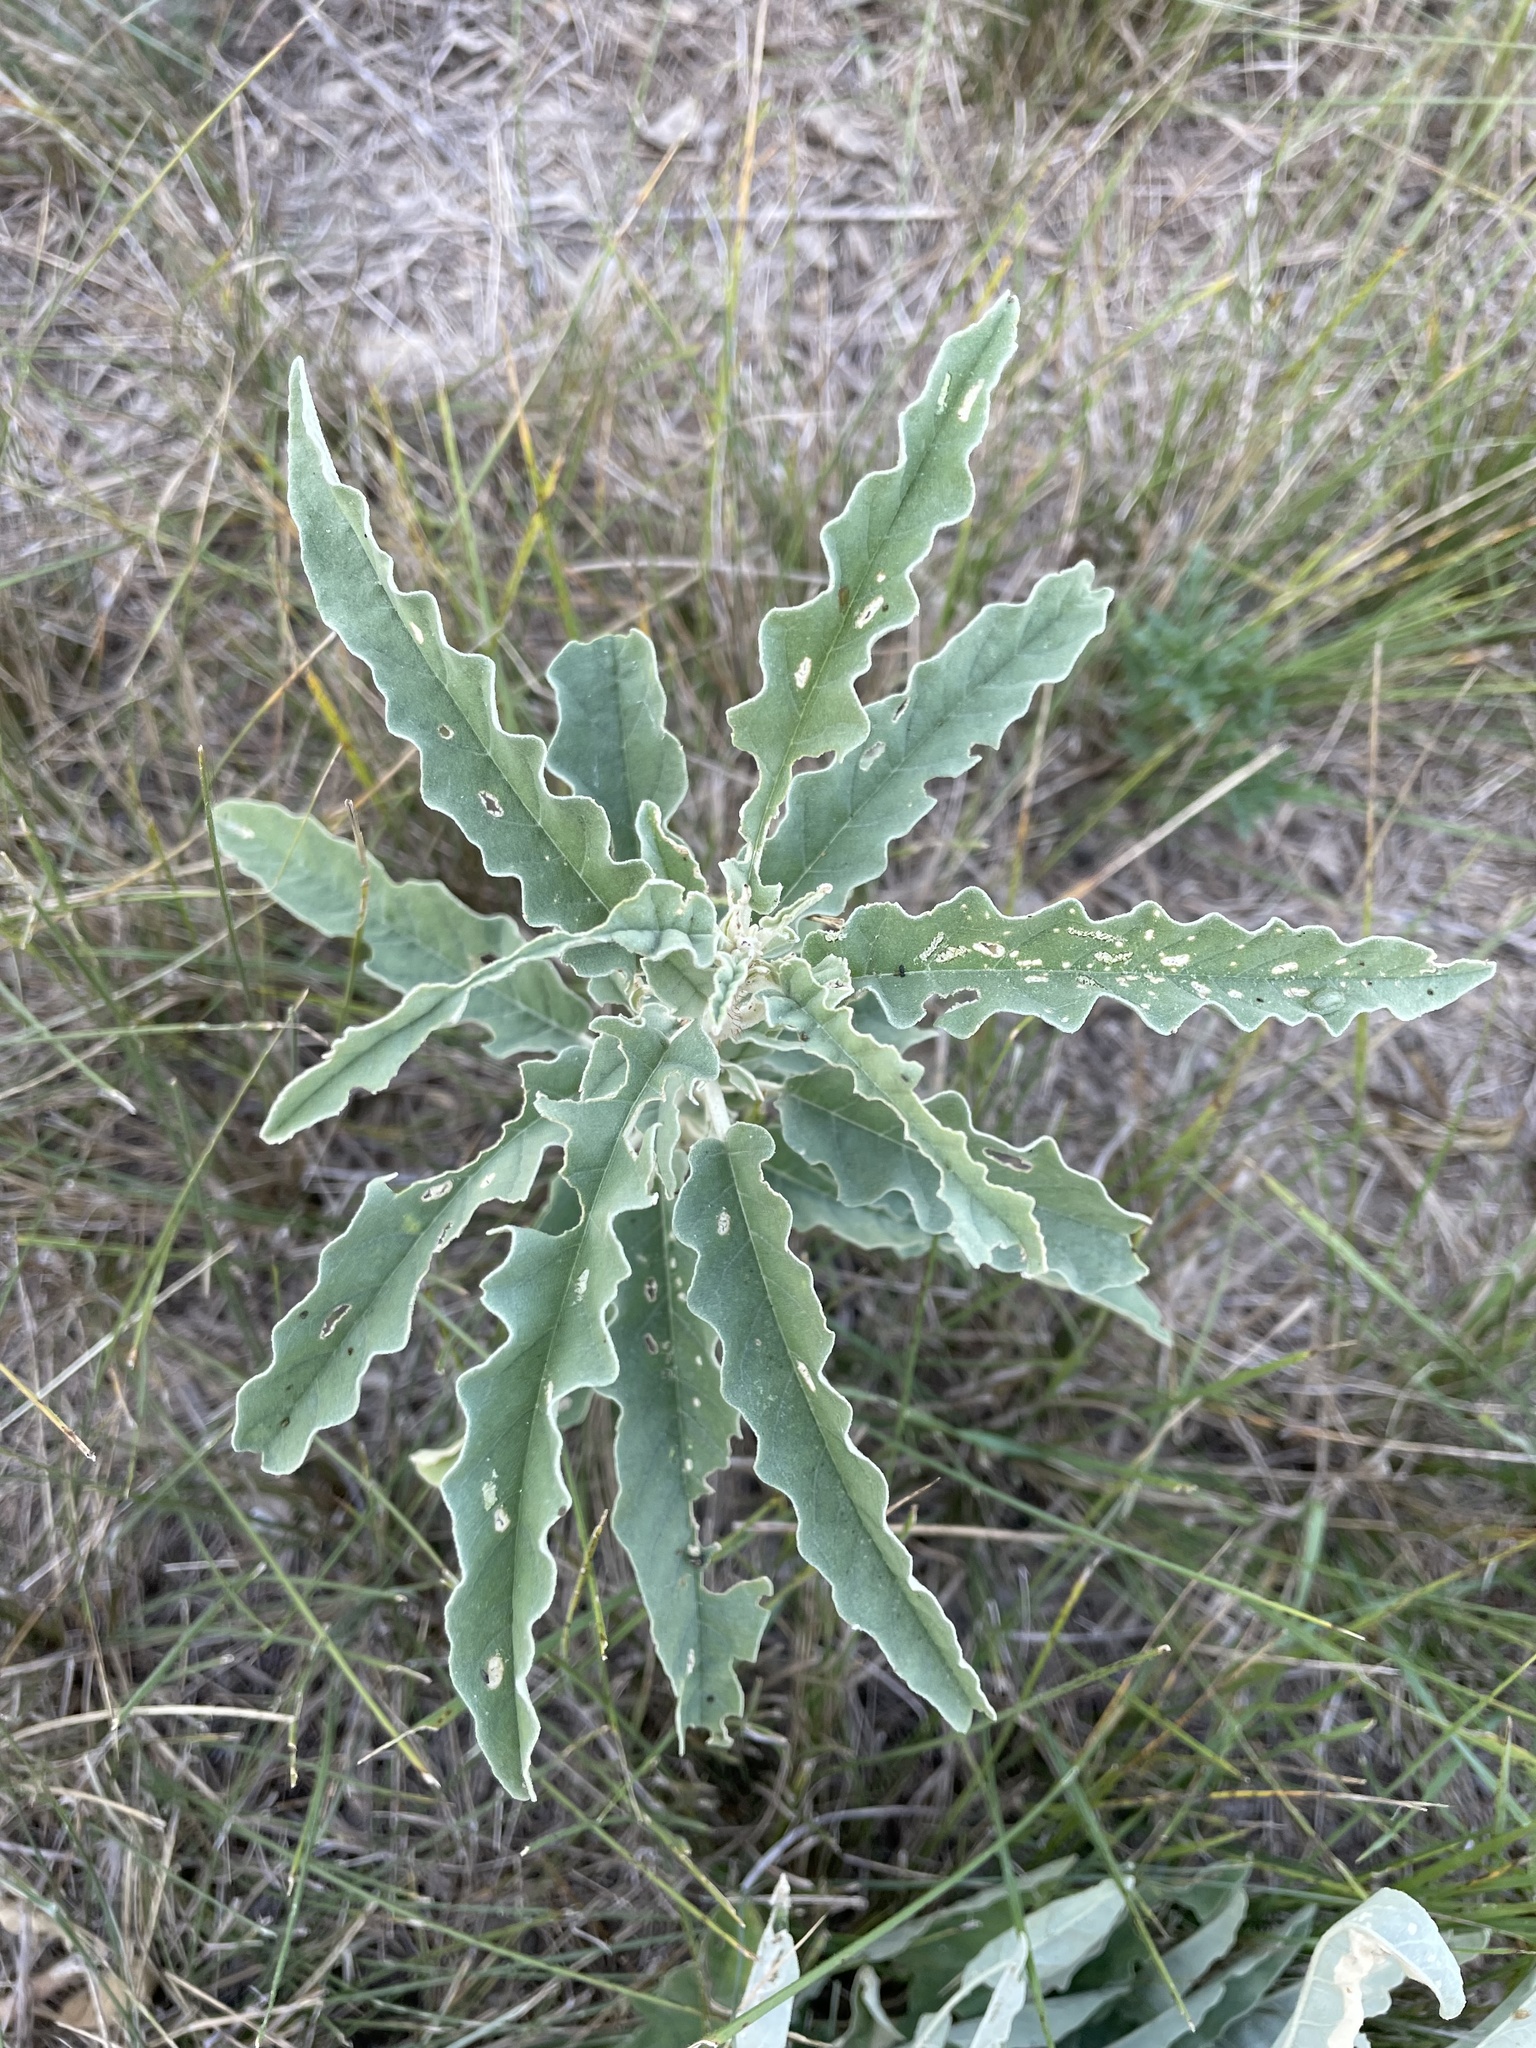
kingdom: Plantae
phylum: Tracheophyta
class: Magnoliopsida
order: Solanales
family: Solanaceae
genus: Solanum
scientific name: Solanum elaeagnifolium
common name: Silverleaf nightshade
